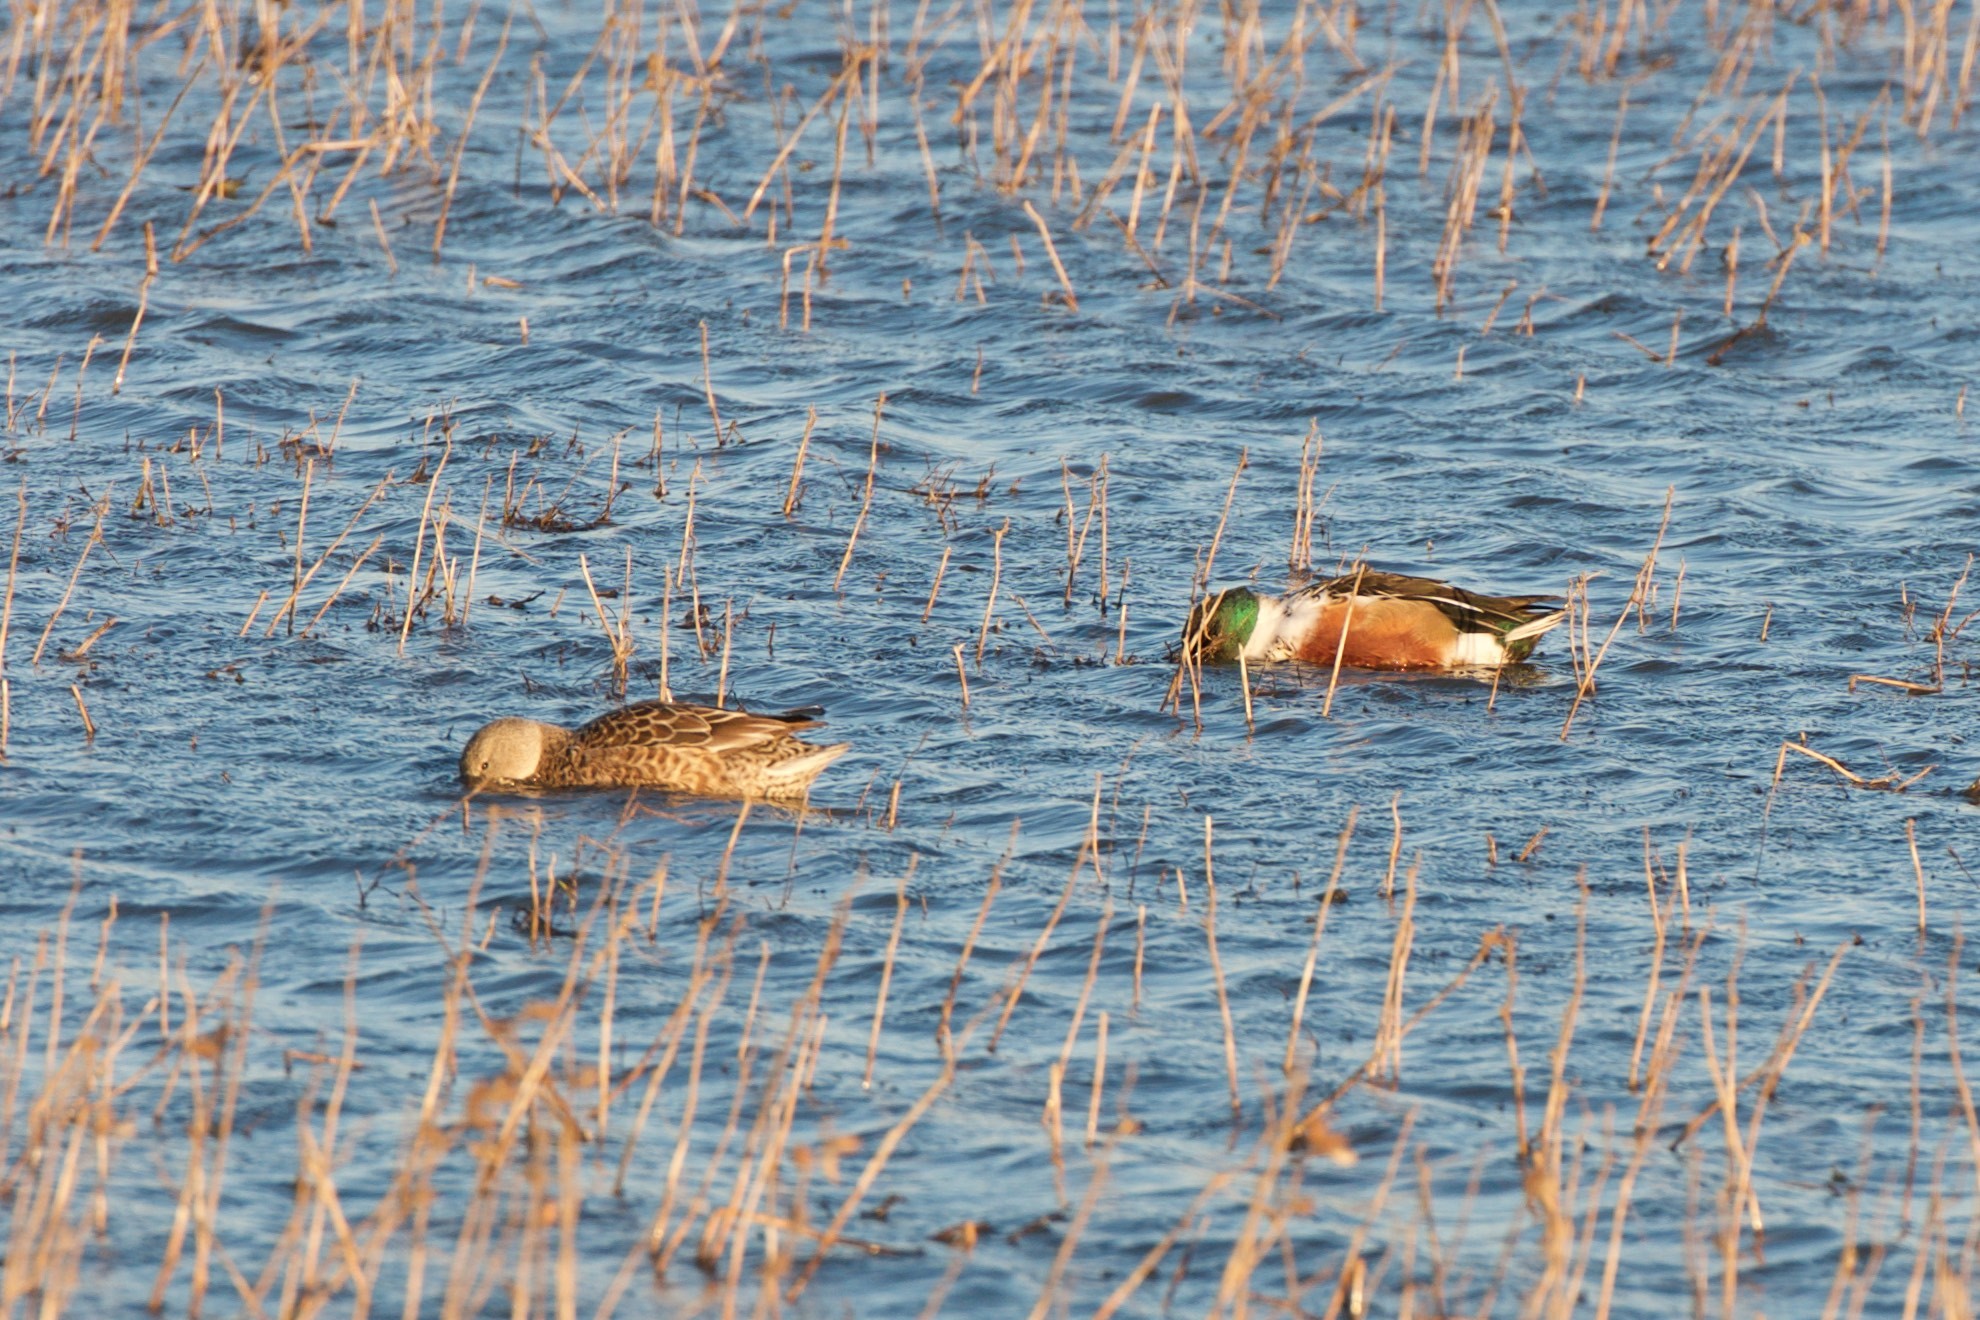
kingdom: Animalia
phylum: Chordata
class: Aves
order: Anseriformes
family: Anatidae
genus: Spatula
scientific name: Spatula clypeata
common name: Northern shoveler
